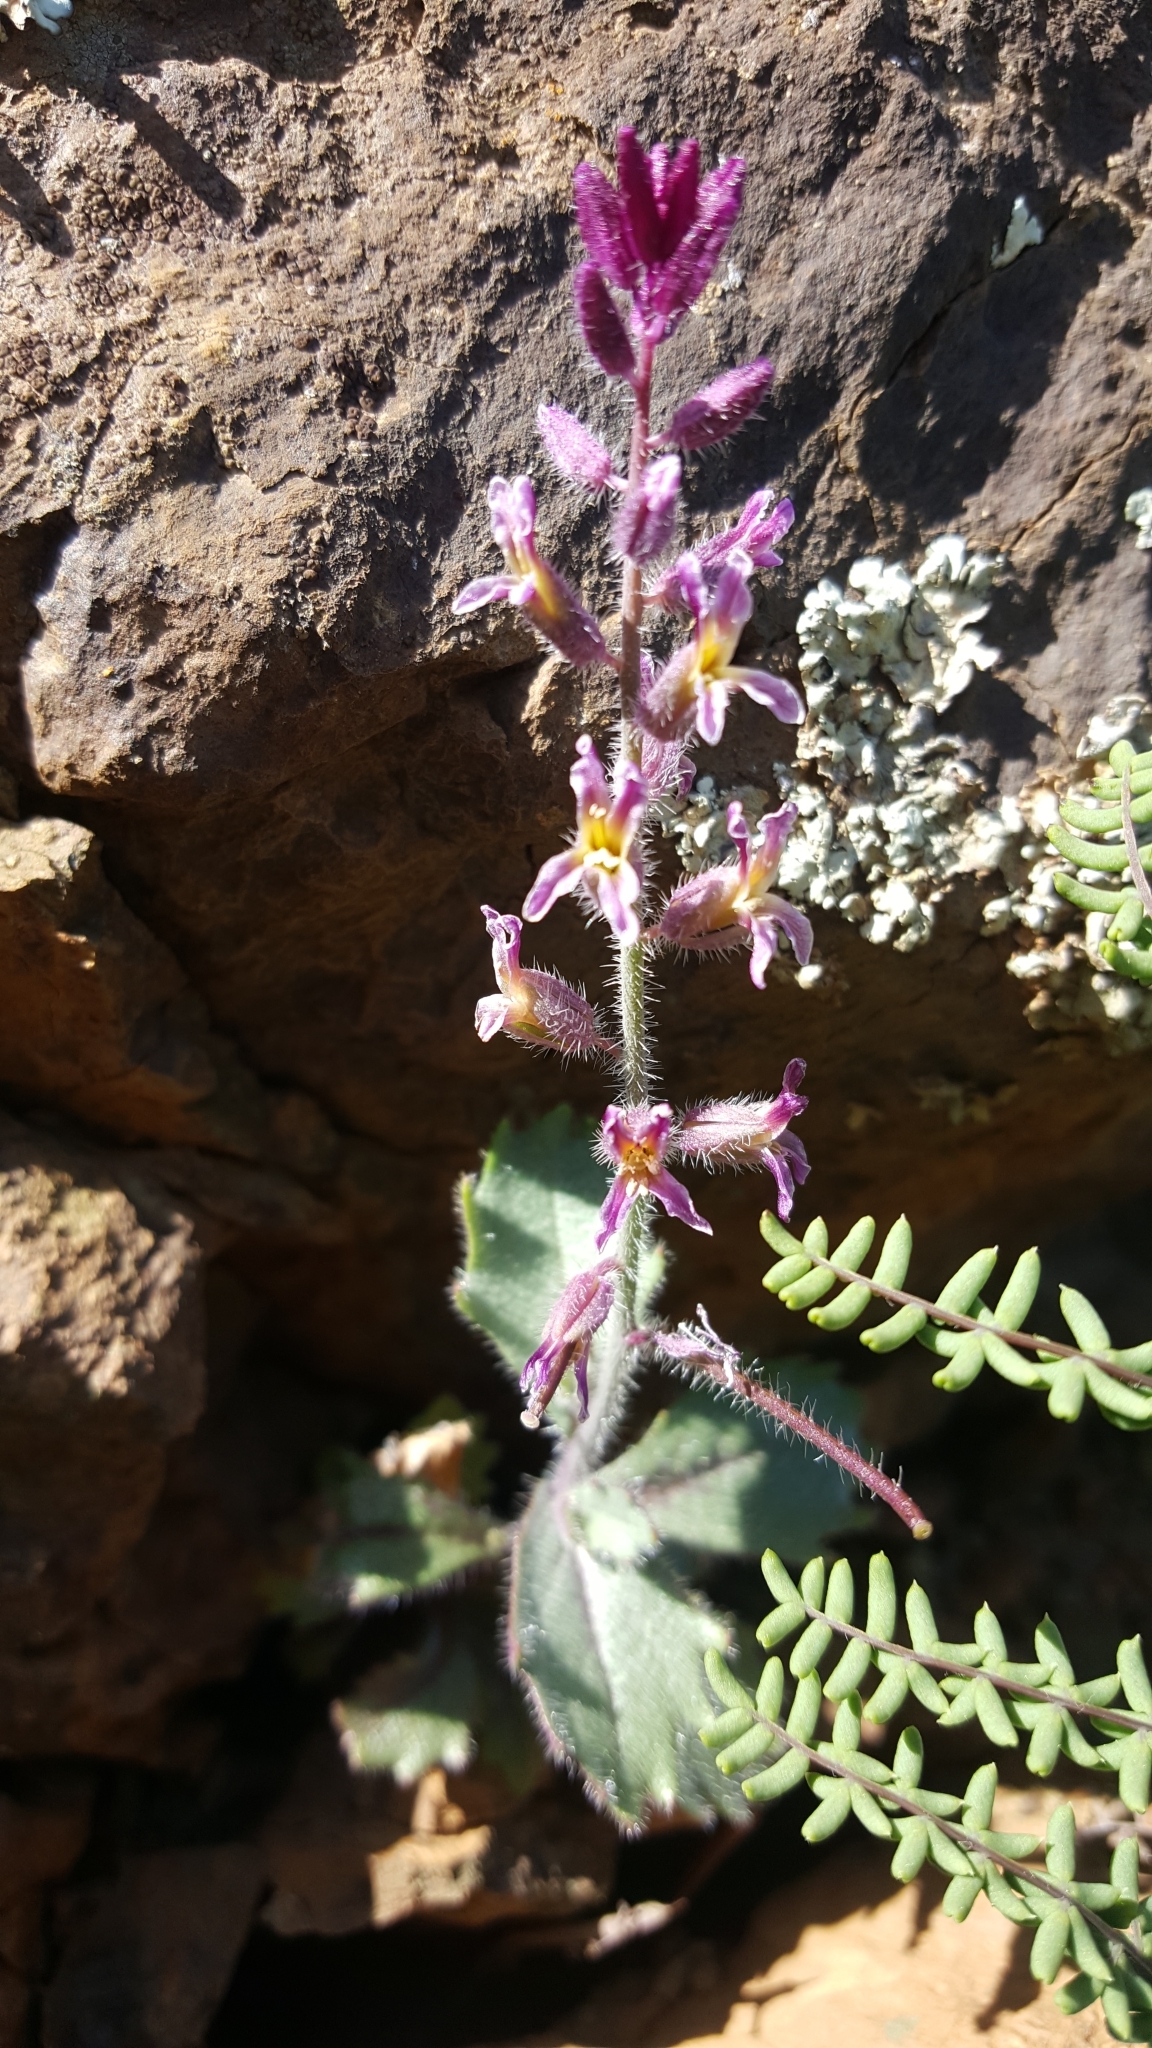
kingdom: Plantae
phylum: Tracheophyta
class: Magnoliopsida
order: Brassicales
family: Brassicaceae
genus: Streptanthus
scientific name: Streptanthus hispidus
